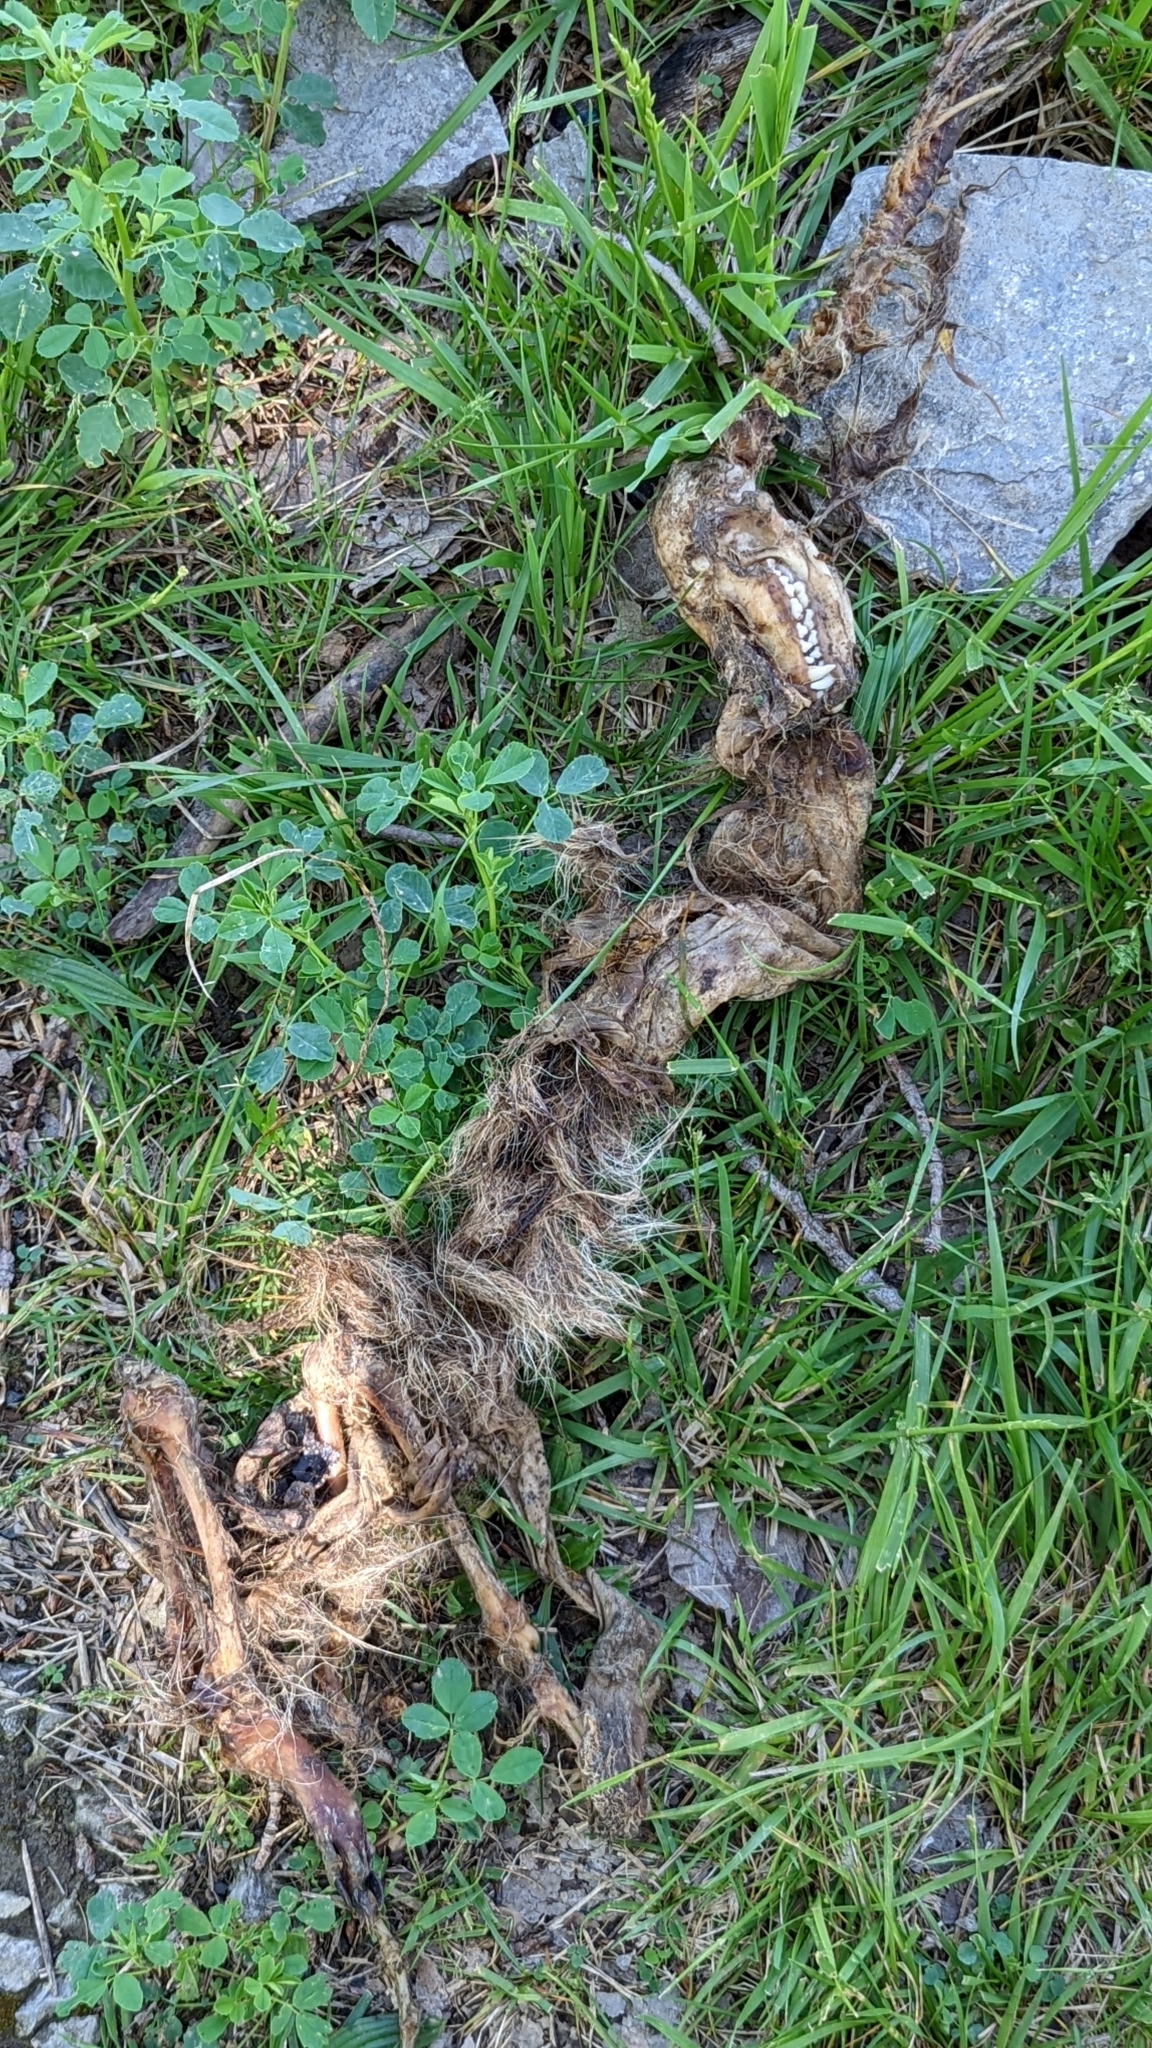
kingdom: Animalia
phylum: Chordata
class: Mammalia
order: Carnivora
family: Procyonidae
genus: Procyon
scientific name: Procyon lotor
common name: Raccoon
